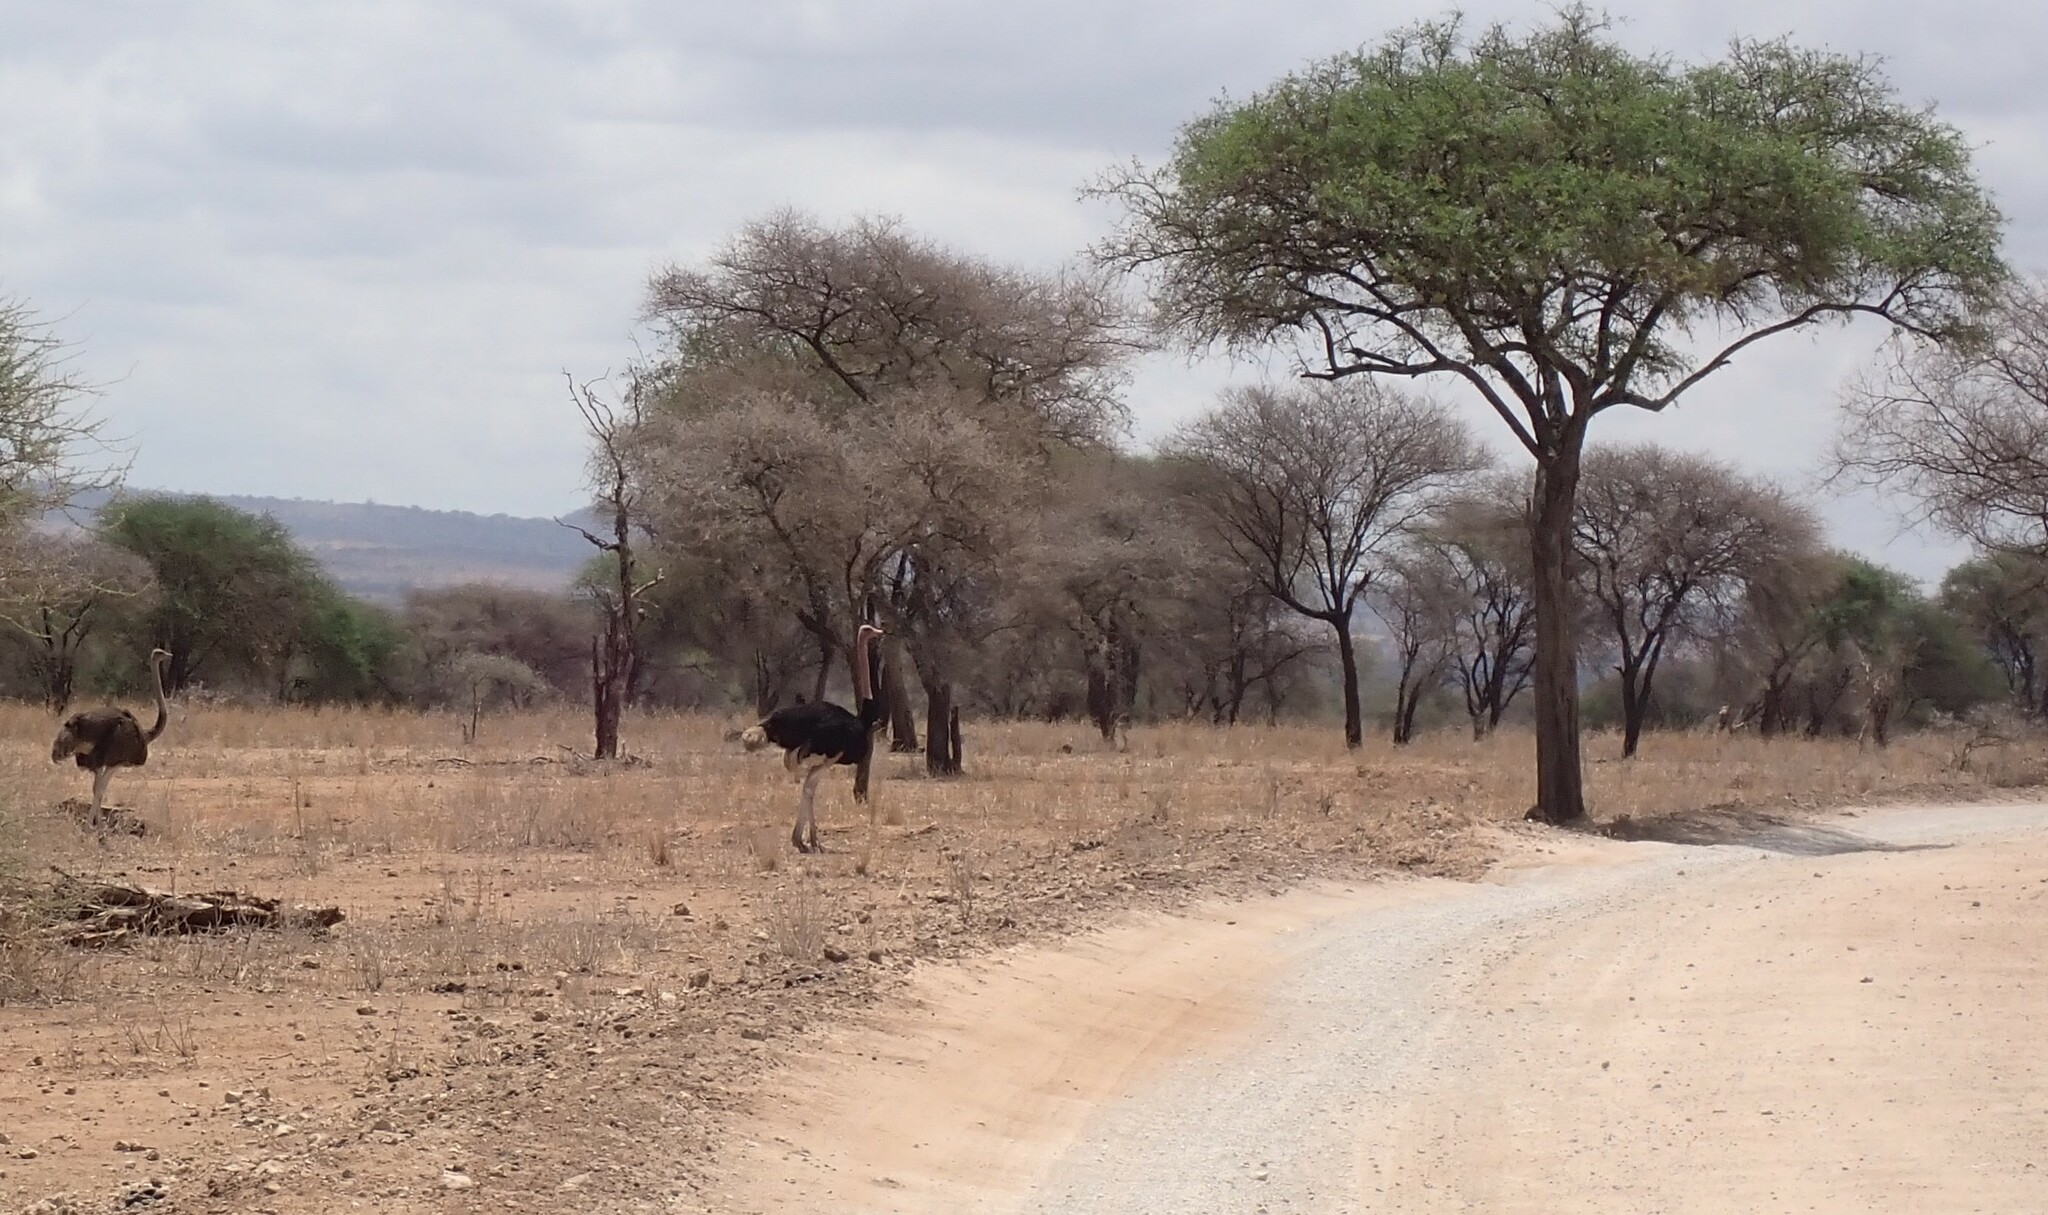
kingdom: Animalia
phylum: Chordata
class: Aves
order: Struthioniformes
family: Struthionidae
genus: Struthio
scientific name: Struthio camelus
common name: Common ostrich
